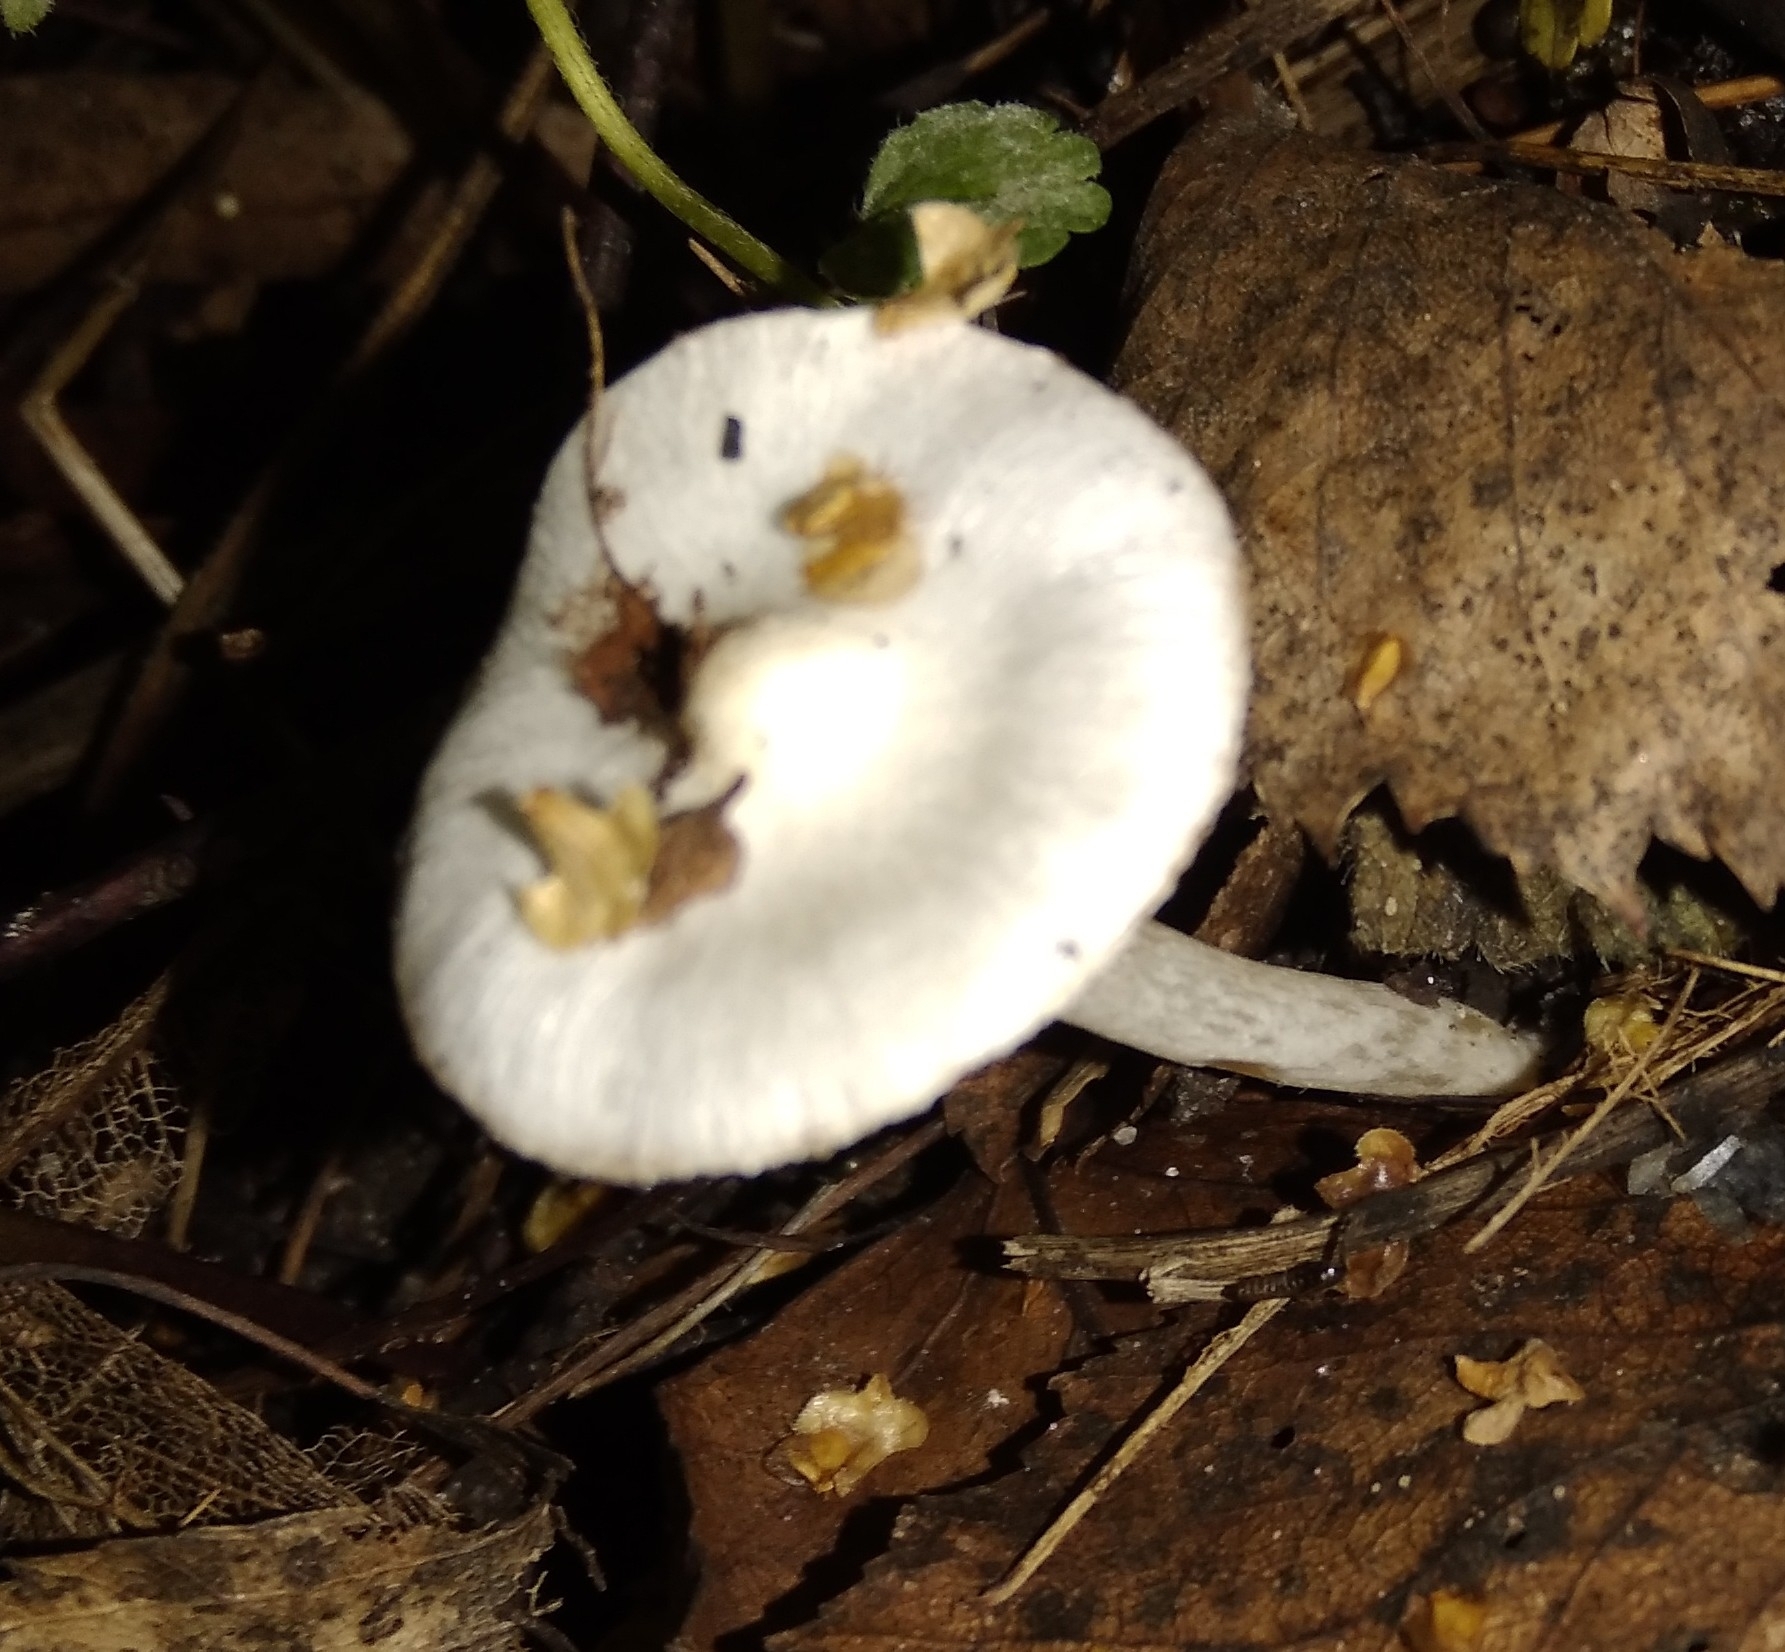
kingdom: Fungi
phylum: Basidiomycota
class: Agaricomycetes
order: Agaricales
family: Inocybaceae
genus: Inocybe
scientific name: Inocybe geophylla
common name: White fibrecap
